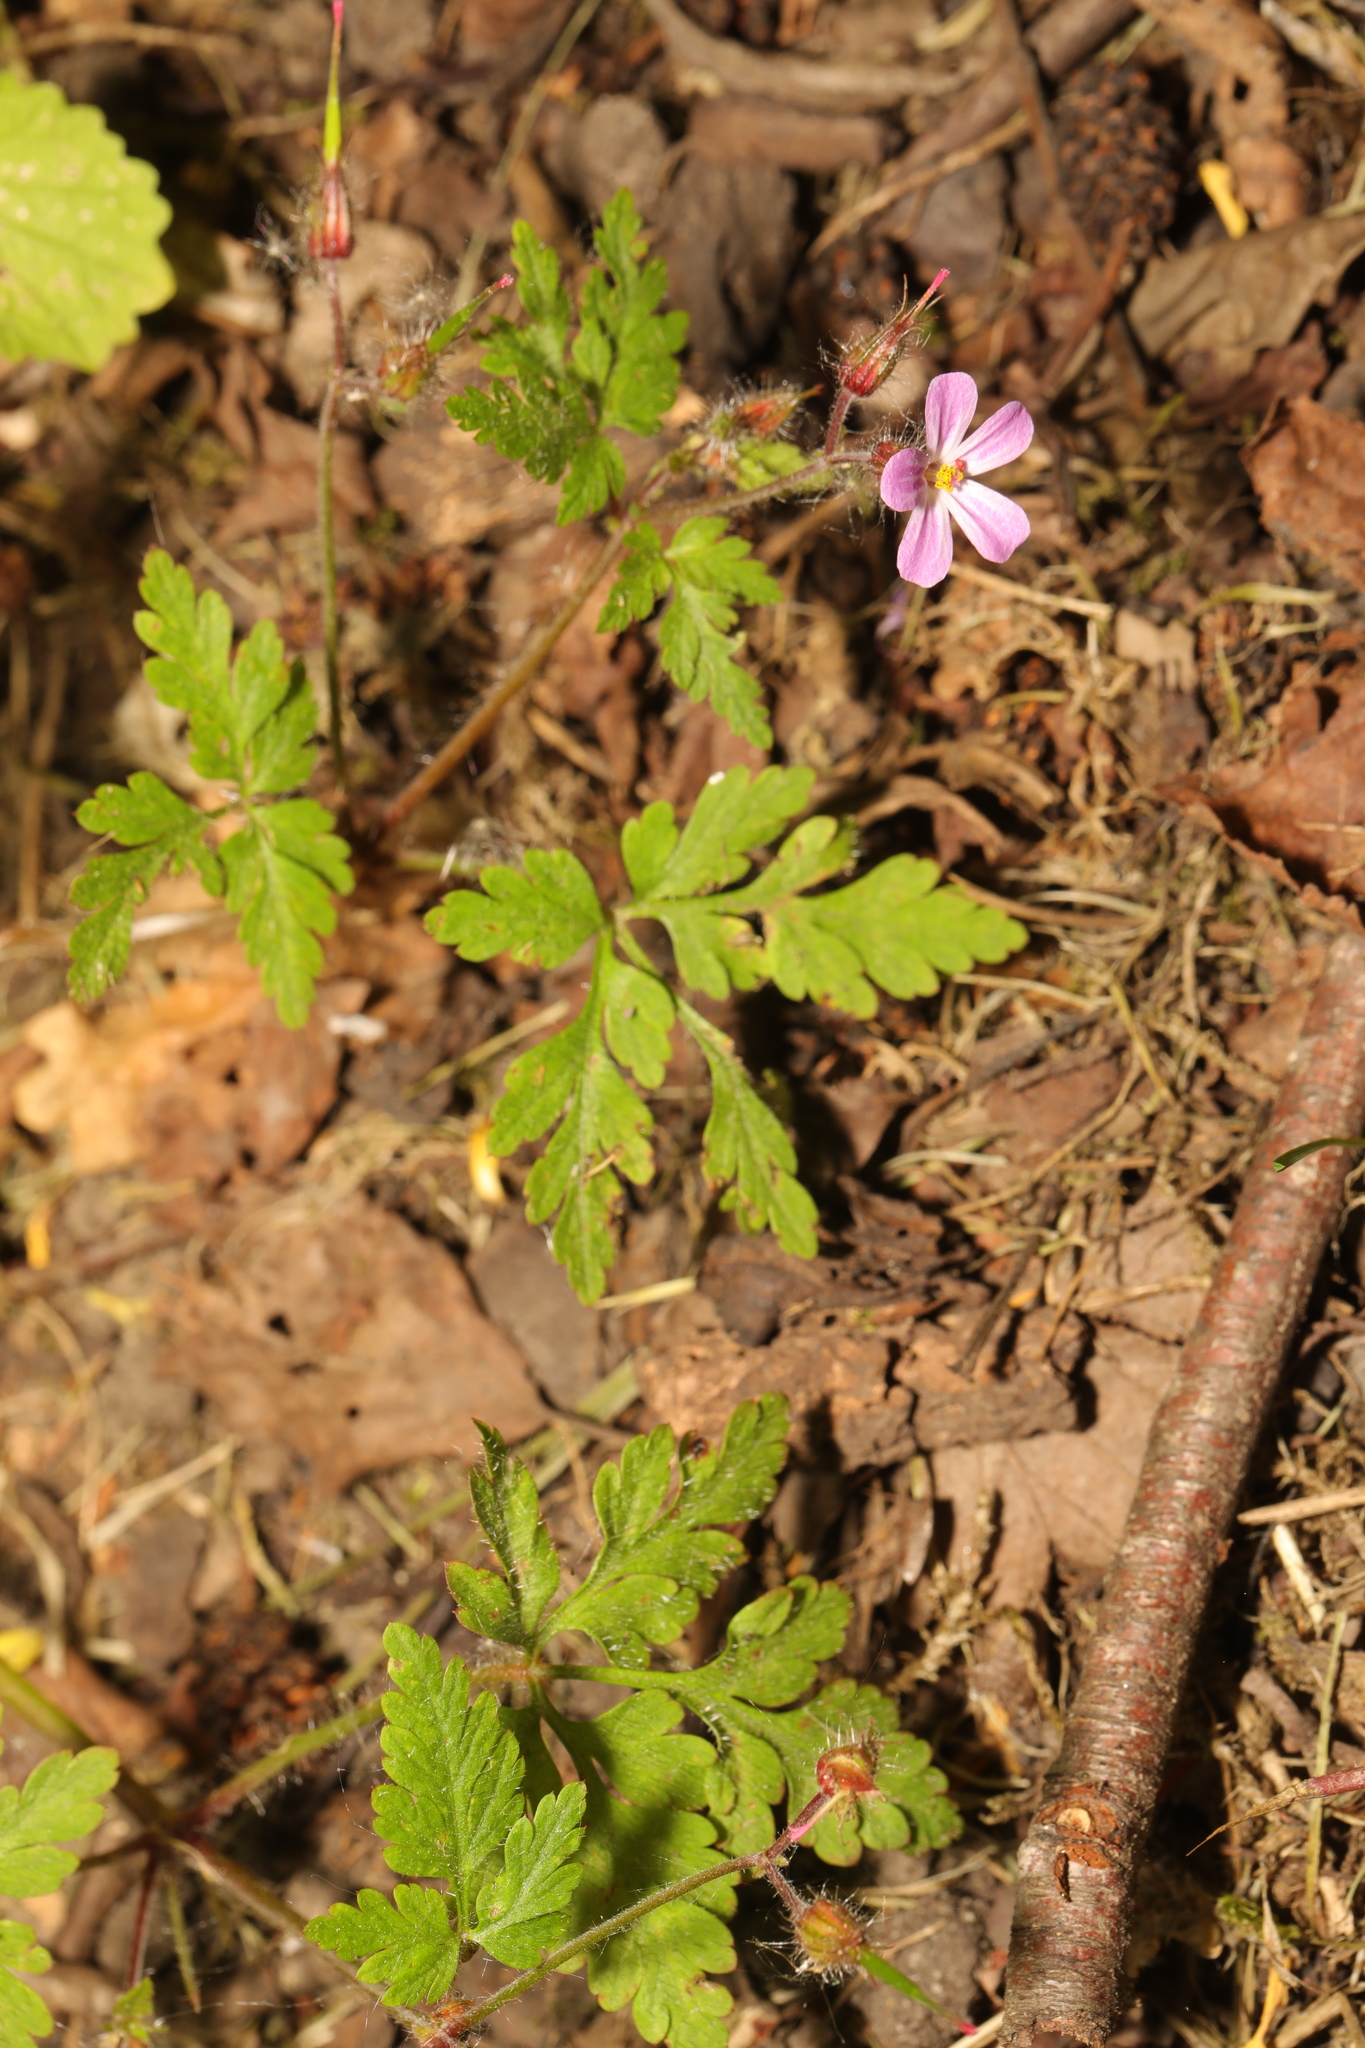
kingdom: Plantae
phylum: Tracheophyta
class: Magnoliopsida
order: Geraniales
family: Geraniaceae
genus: Geranium
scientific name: Geranium robertianum
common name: Herb-robert
